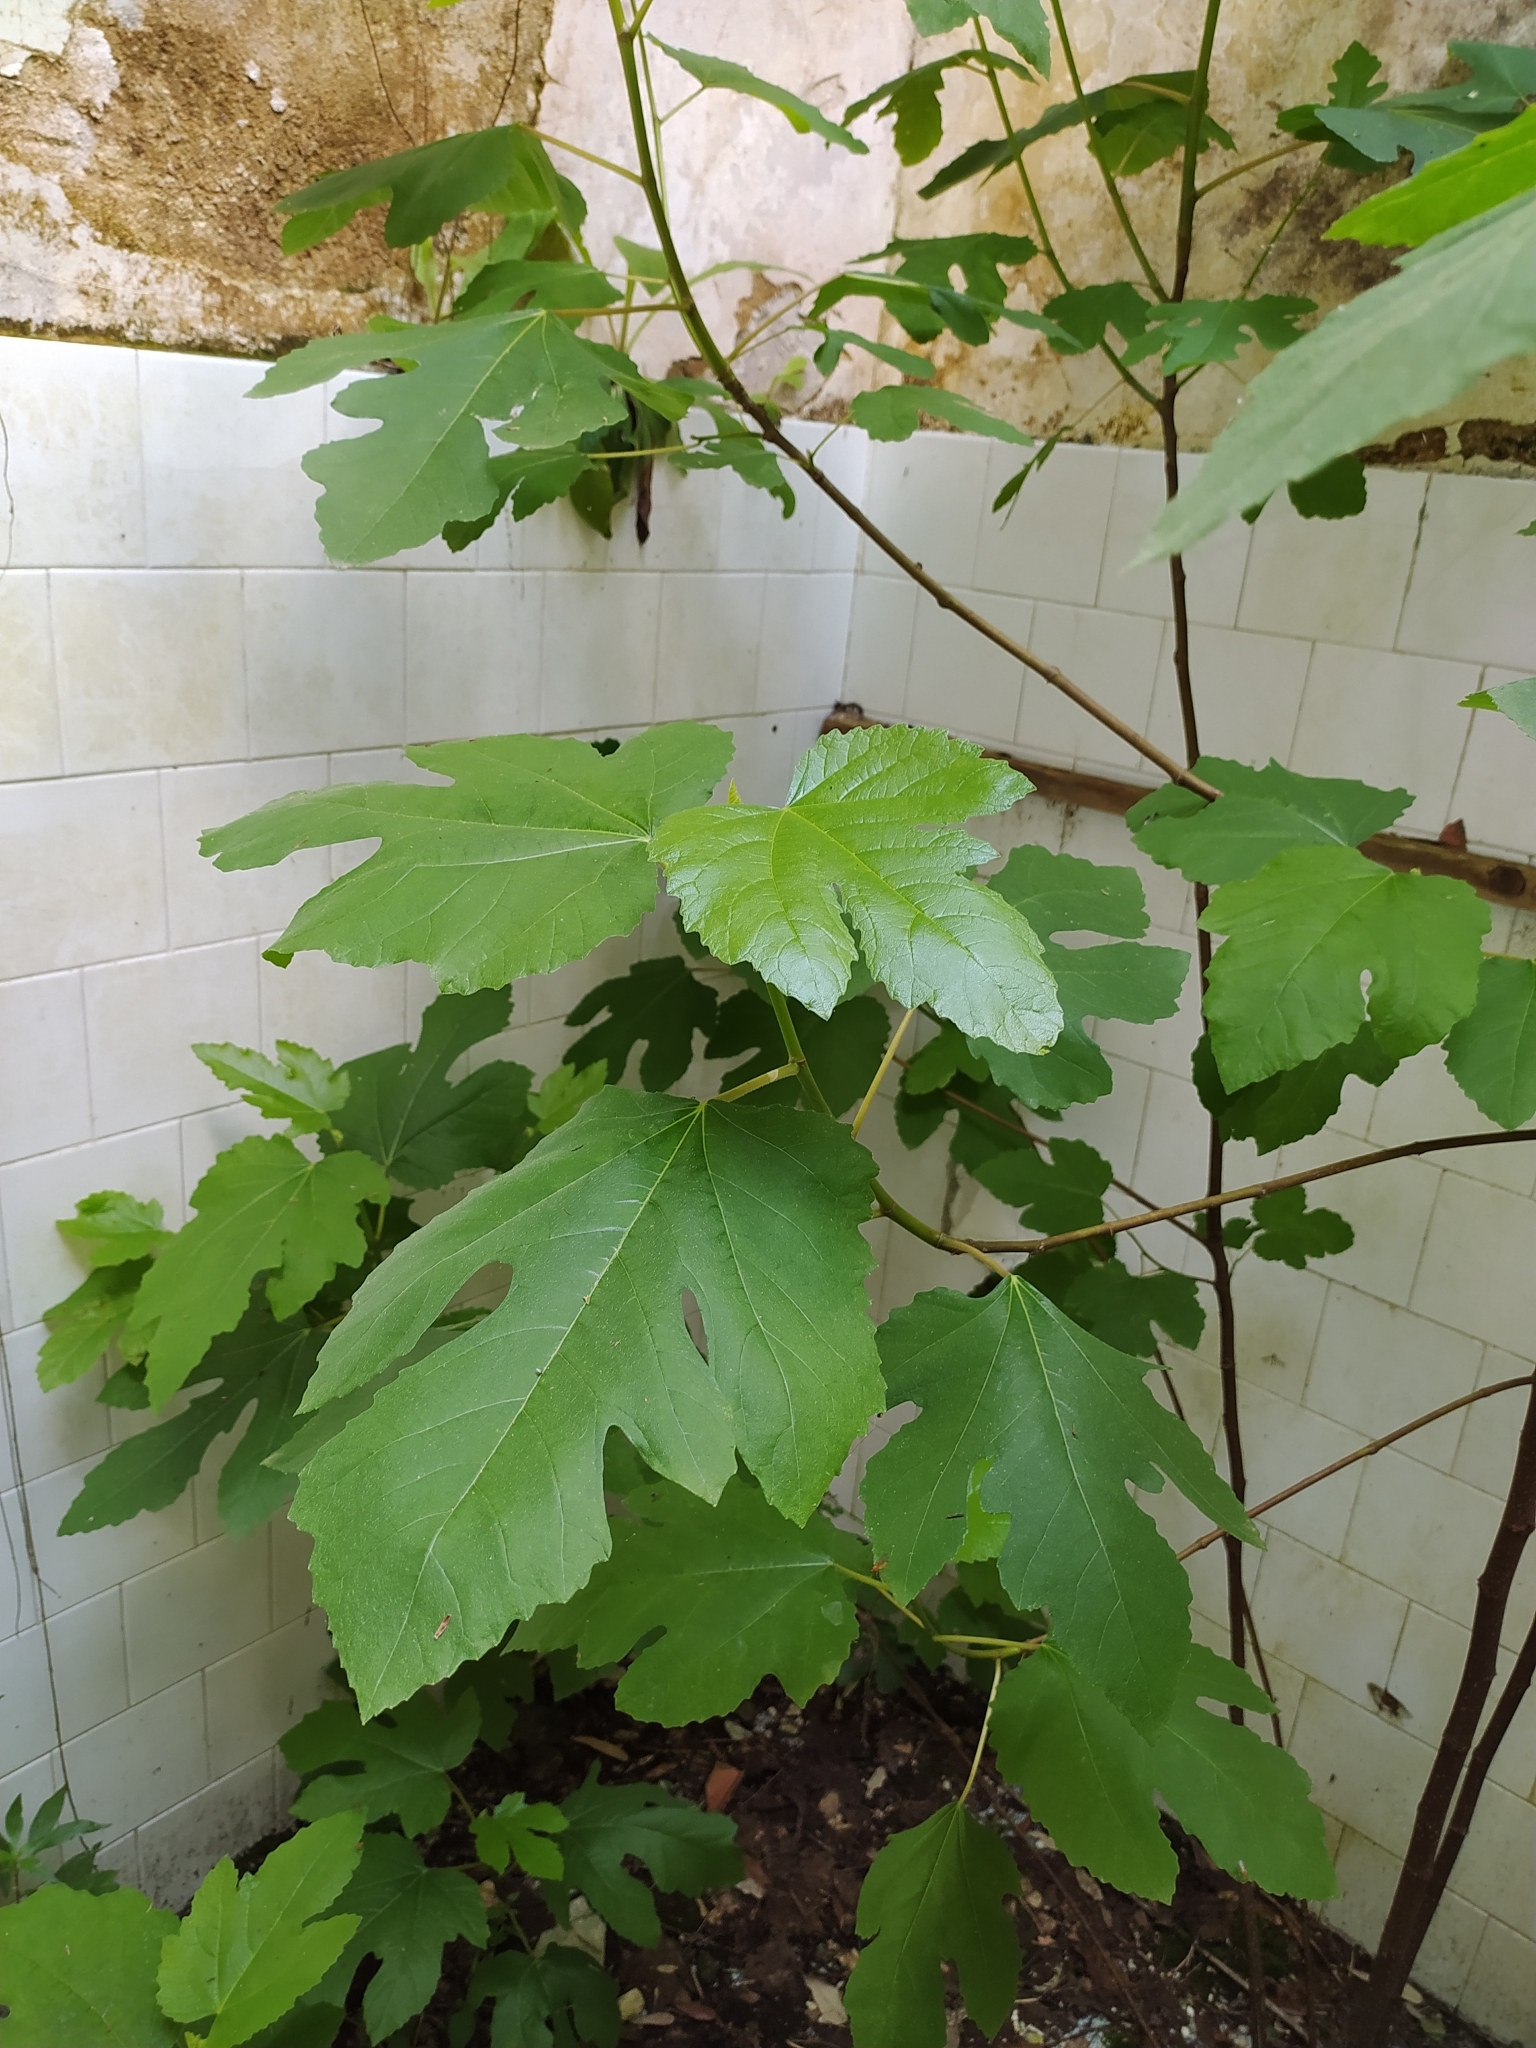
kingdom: Plantae
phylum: Tracheophyta
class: Magnoliopsida
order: Rosales
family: Moraceae
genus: Ficus
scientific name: Ficus carica
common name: Fig
